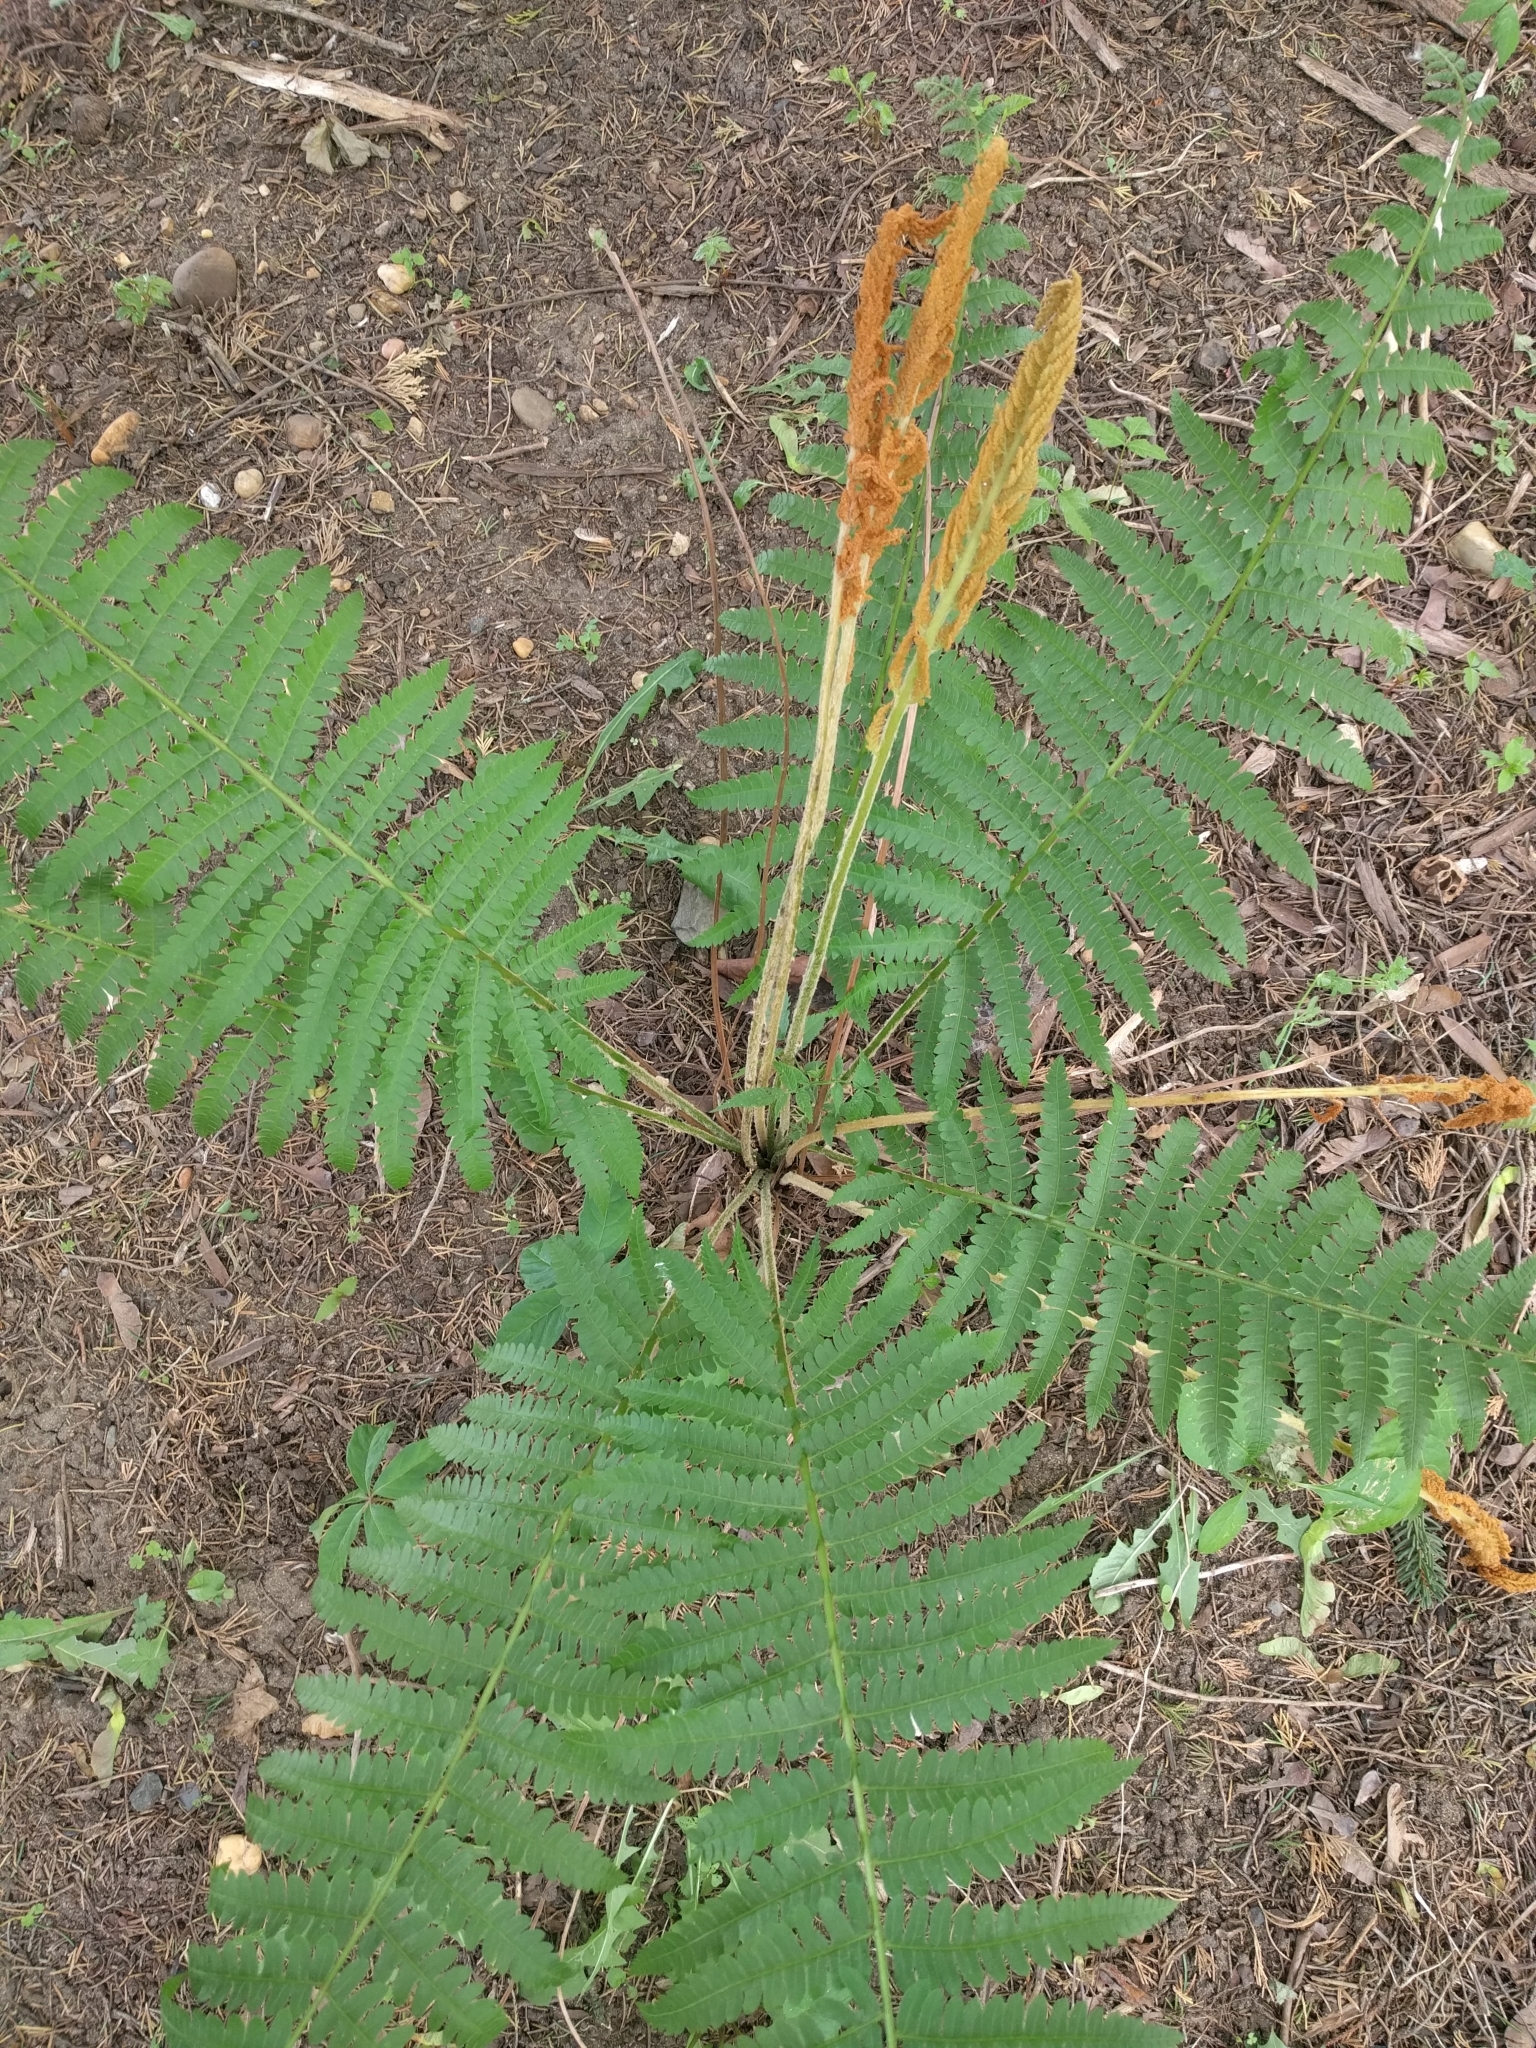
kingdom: Plantae
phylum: Tracheophyta
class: Polypodiopsida
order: Osmundales
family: Osmundaceae
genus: Osmundastrum
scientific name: Osmundastrum cinnamomeum
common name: Cinnamon fern
